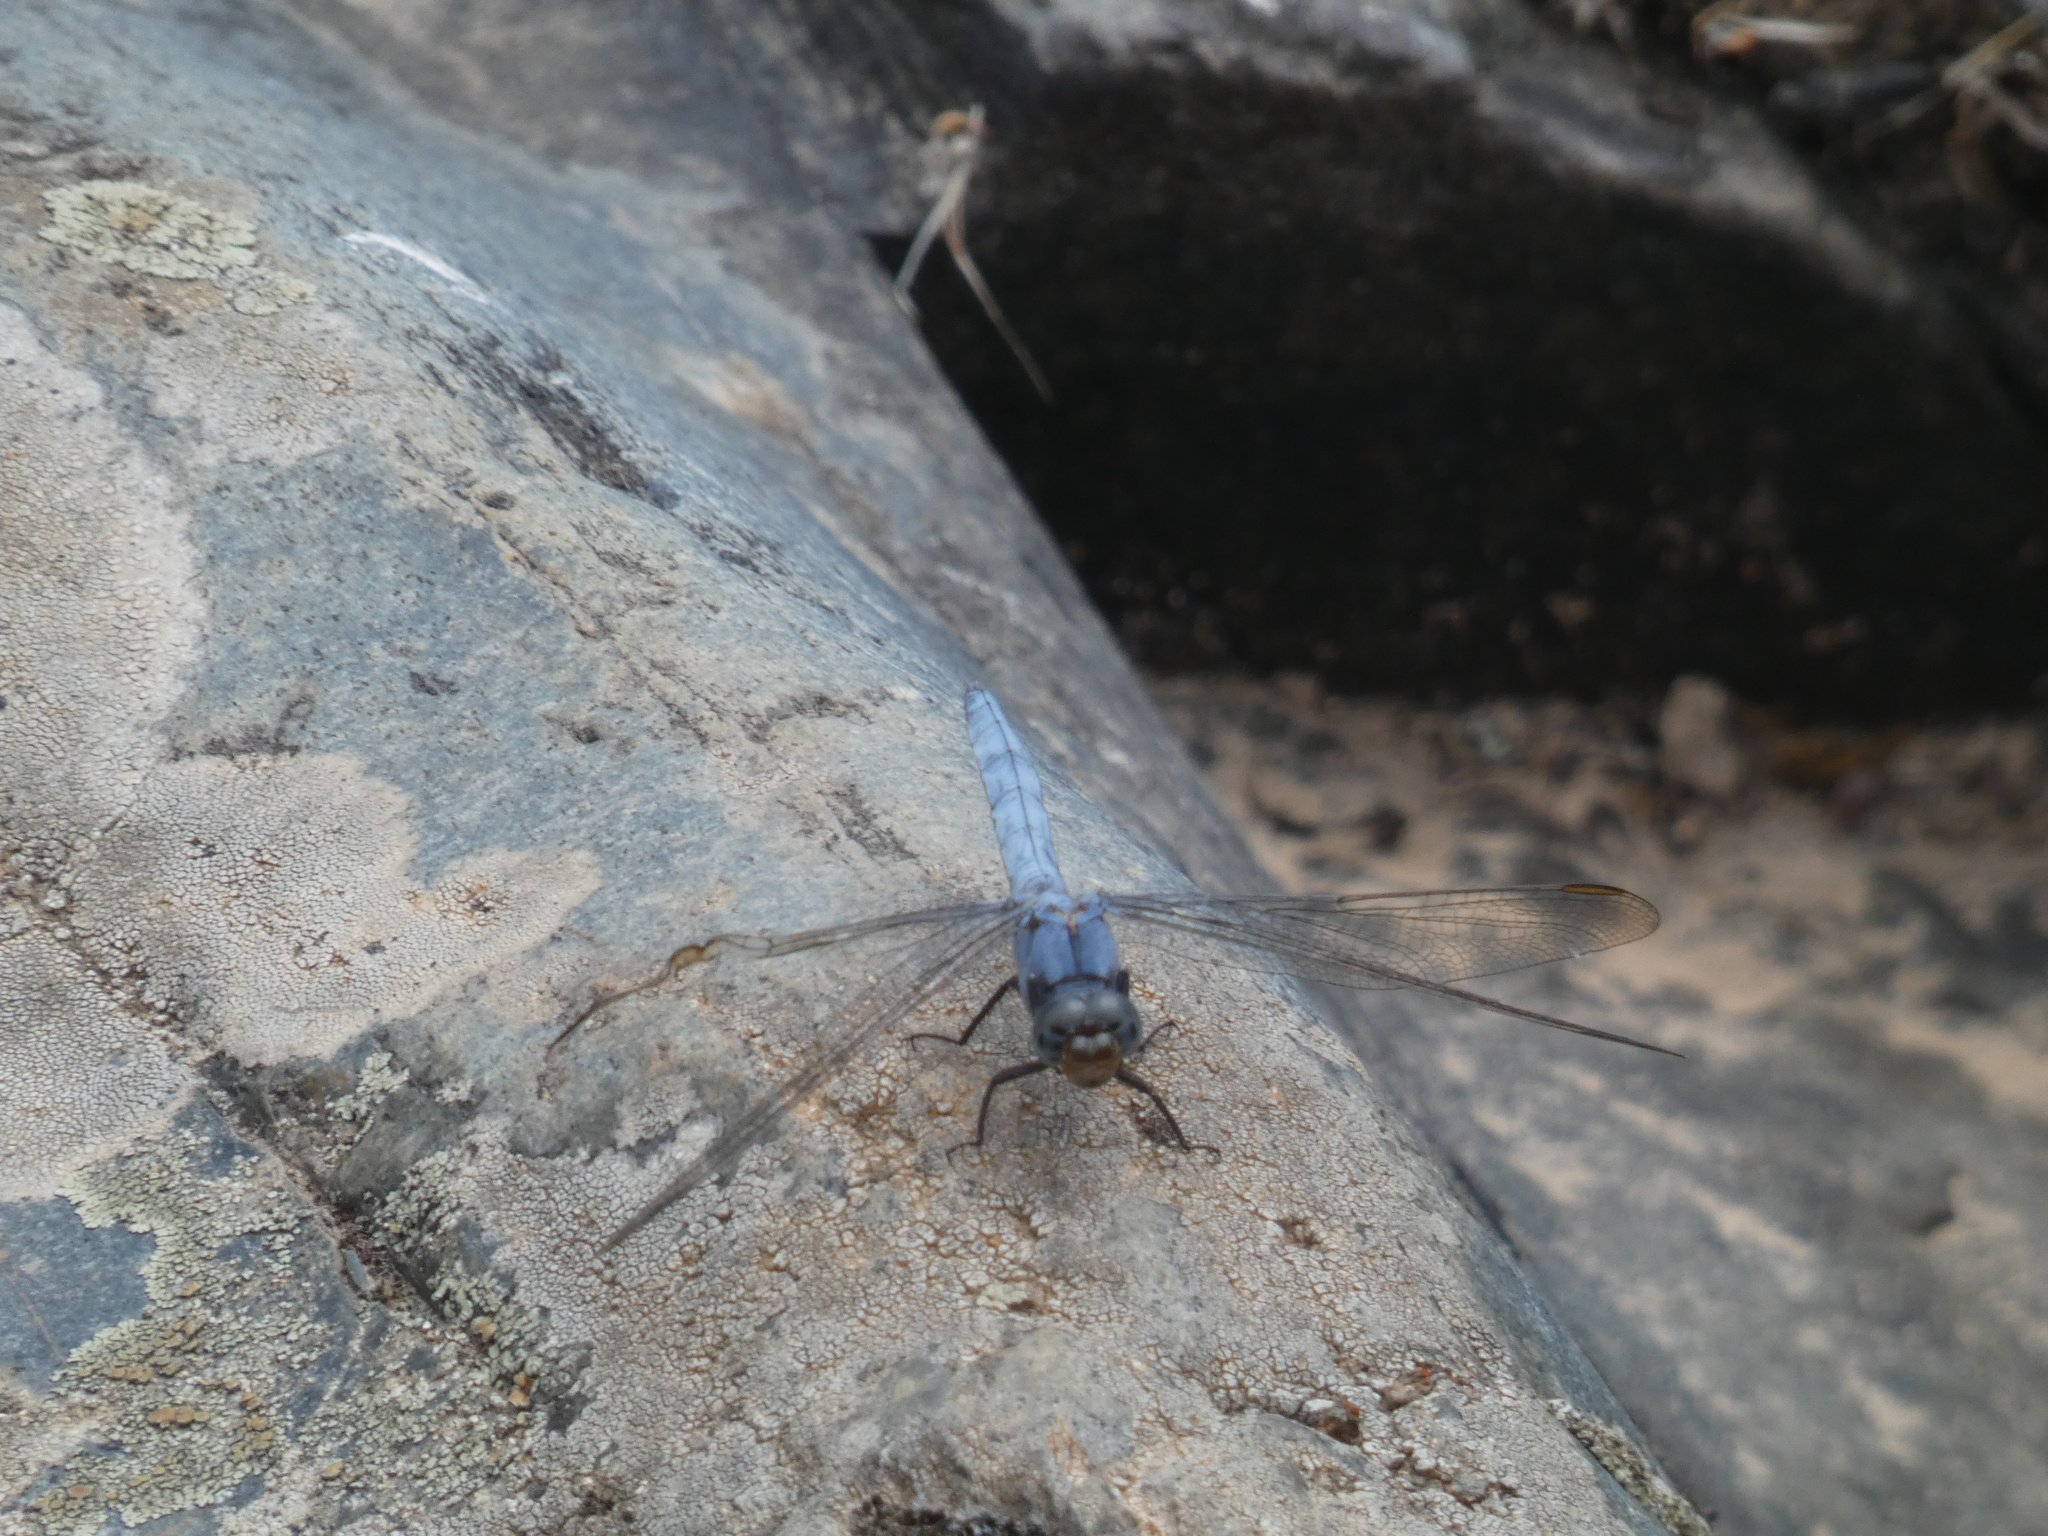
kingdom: Animalia
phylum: Arthropoda
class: Insecta
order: Odonata
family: Libellulidae
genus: Orthetrum
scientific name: Orthetrum coerulescens
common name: Keeled skimmer
